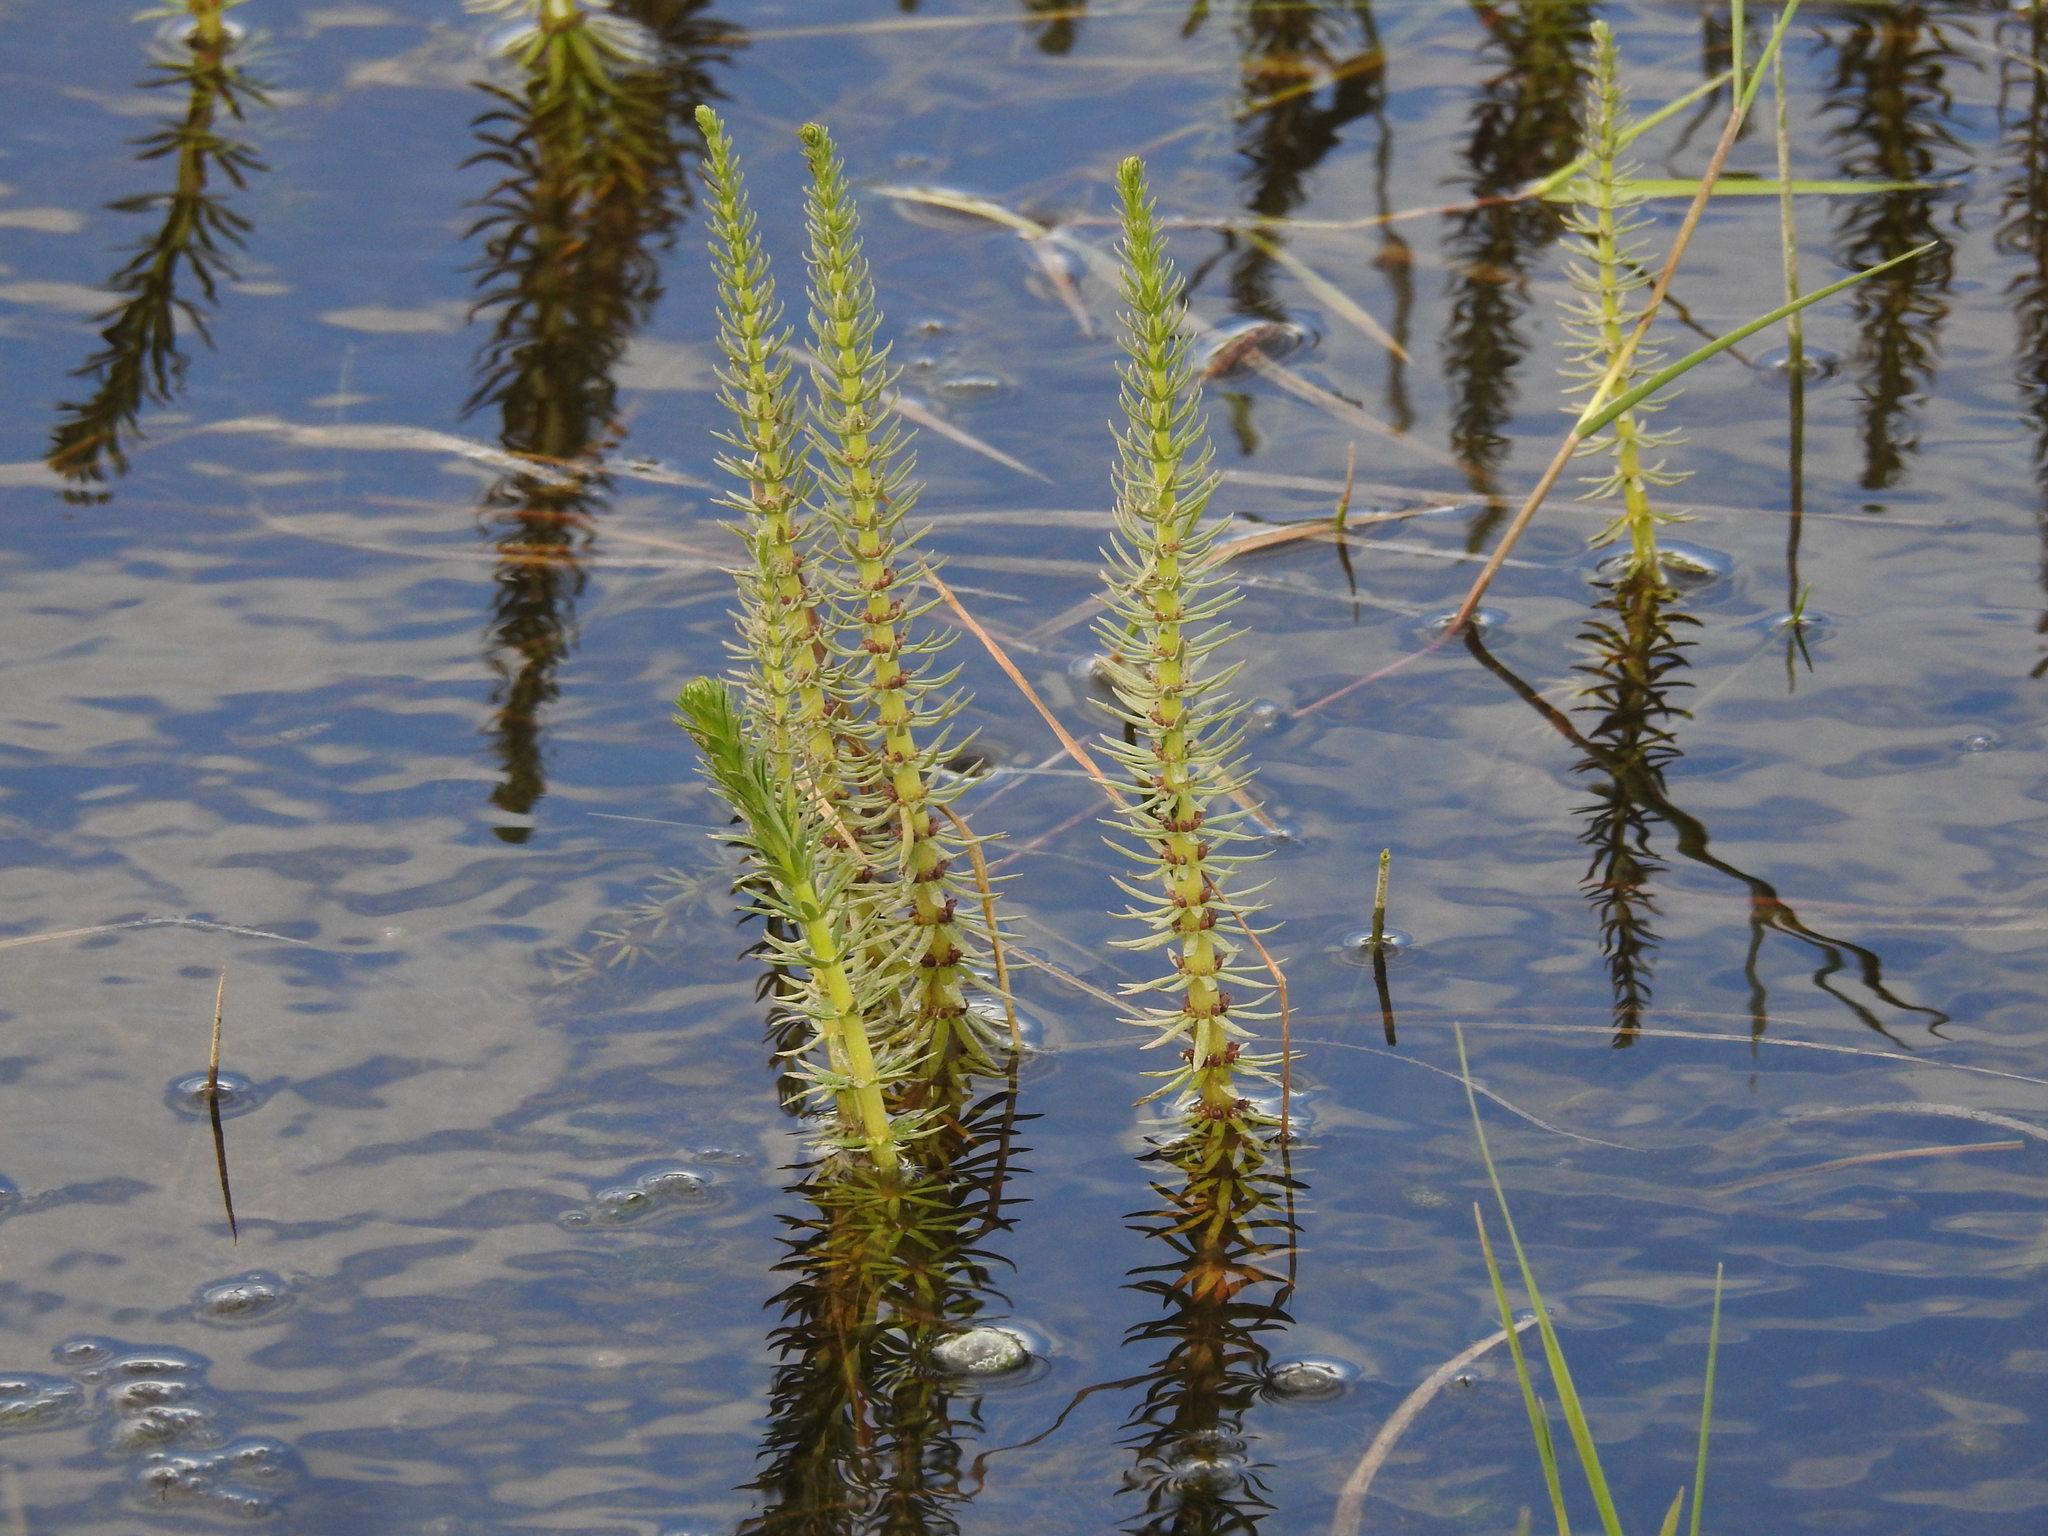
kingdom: Plantae
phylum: Tracheophyta
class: Magnoliopsida
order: Lamiales
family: Plantaginaceae
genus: Hippuris
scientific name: Hippuris vulgaris
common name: Mare's-tail
